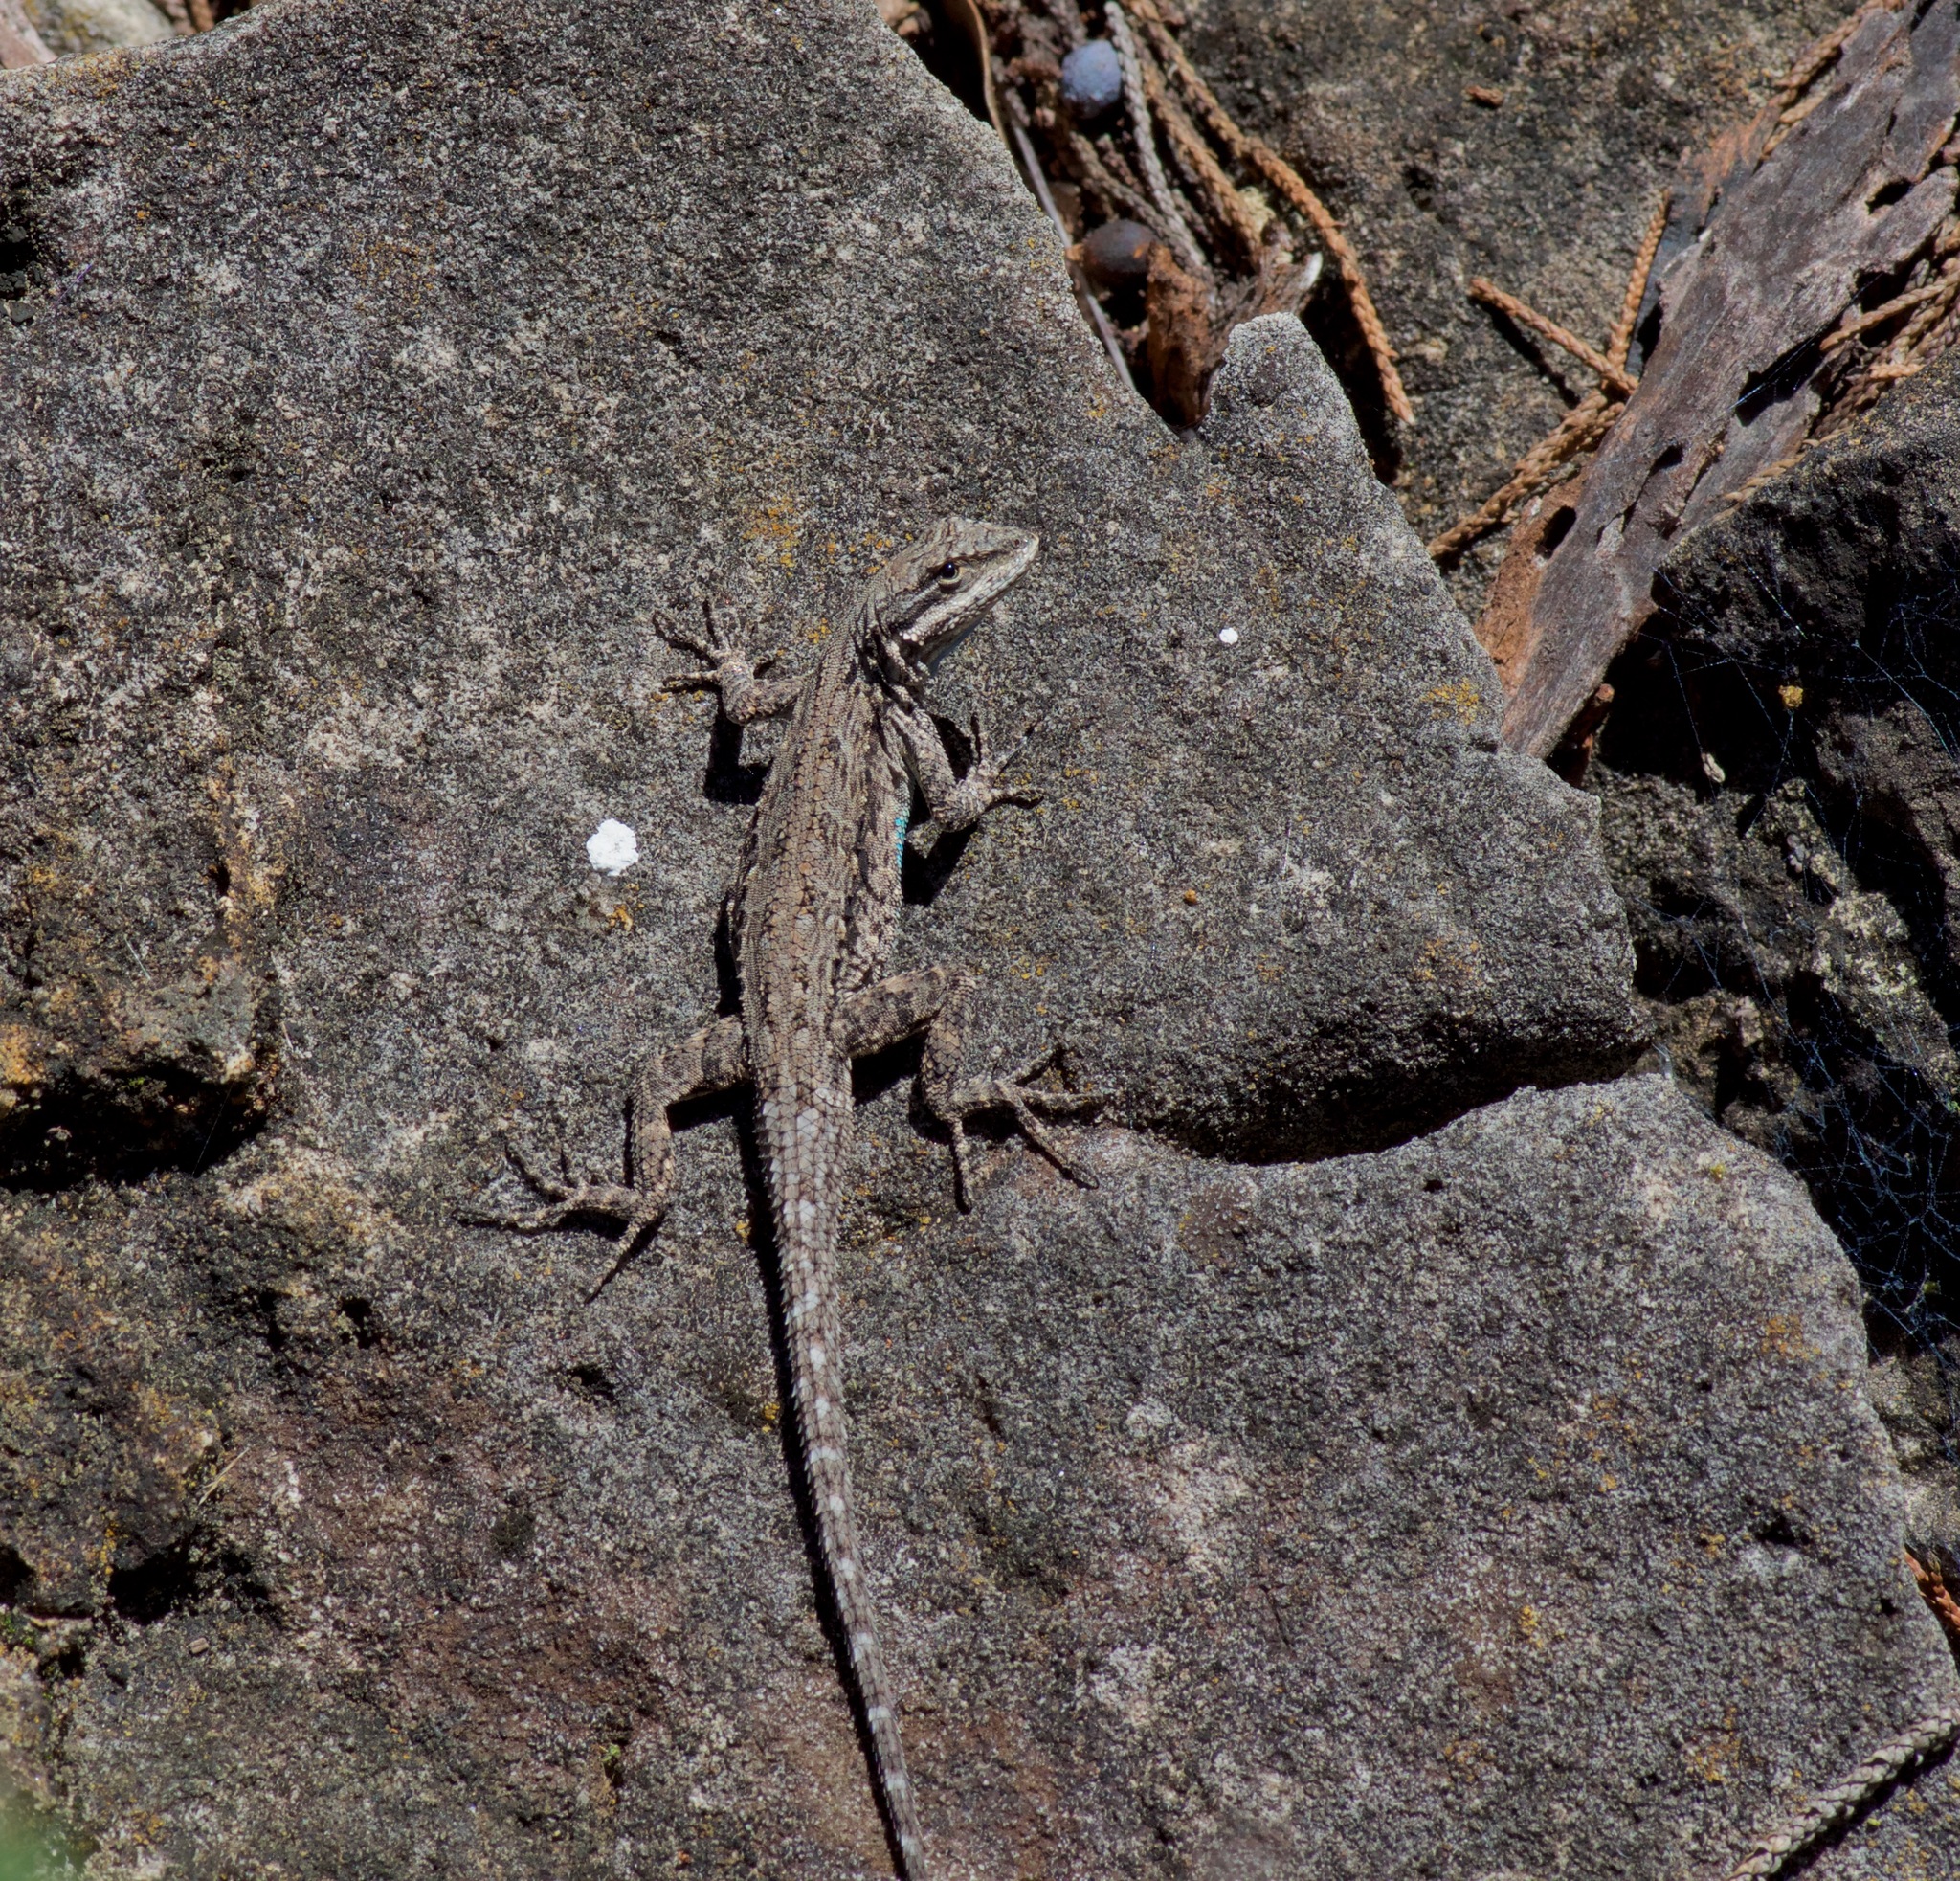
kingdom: Animalia
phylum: Chordata
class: Squamata
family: Phrynosomatidae
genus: Urosaurus
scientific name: Urosaurus ornatus
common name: Ornate tree lizard
